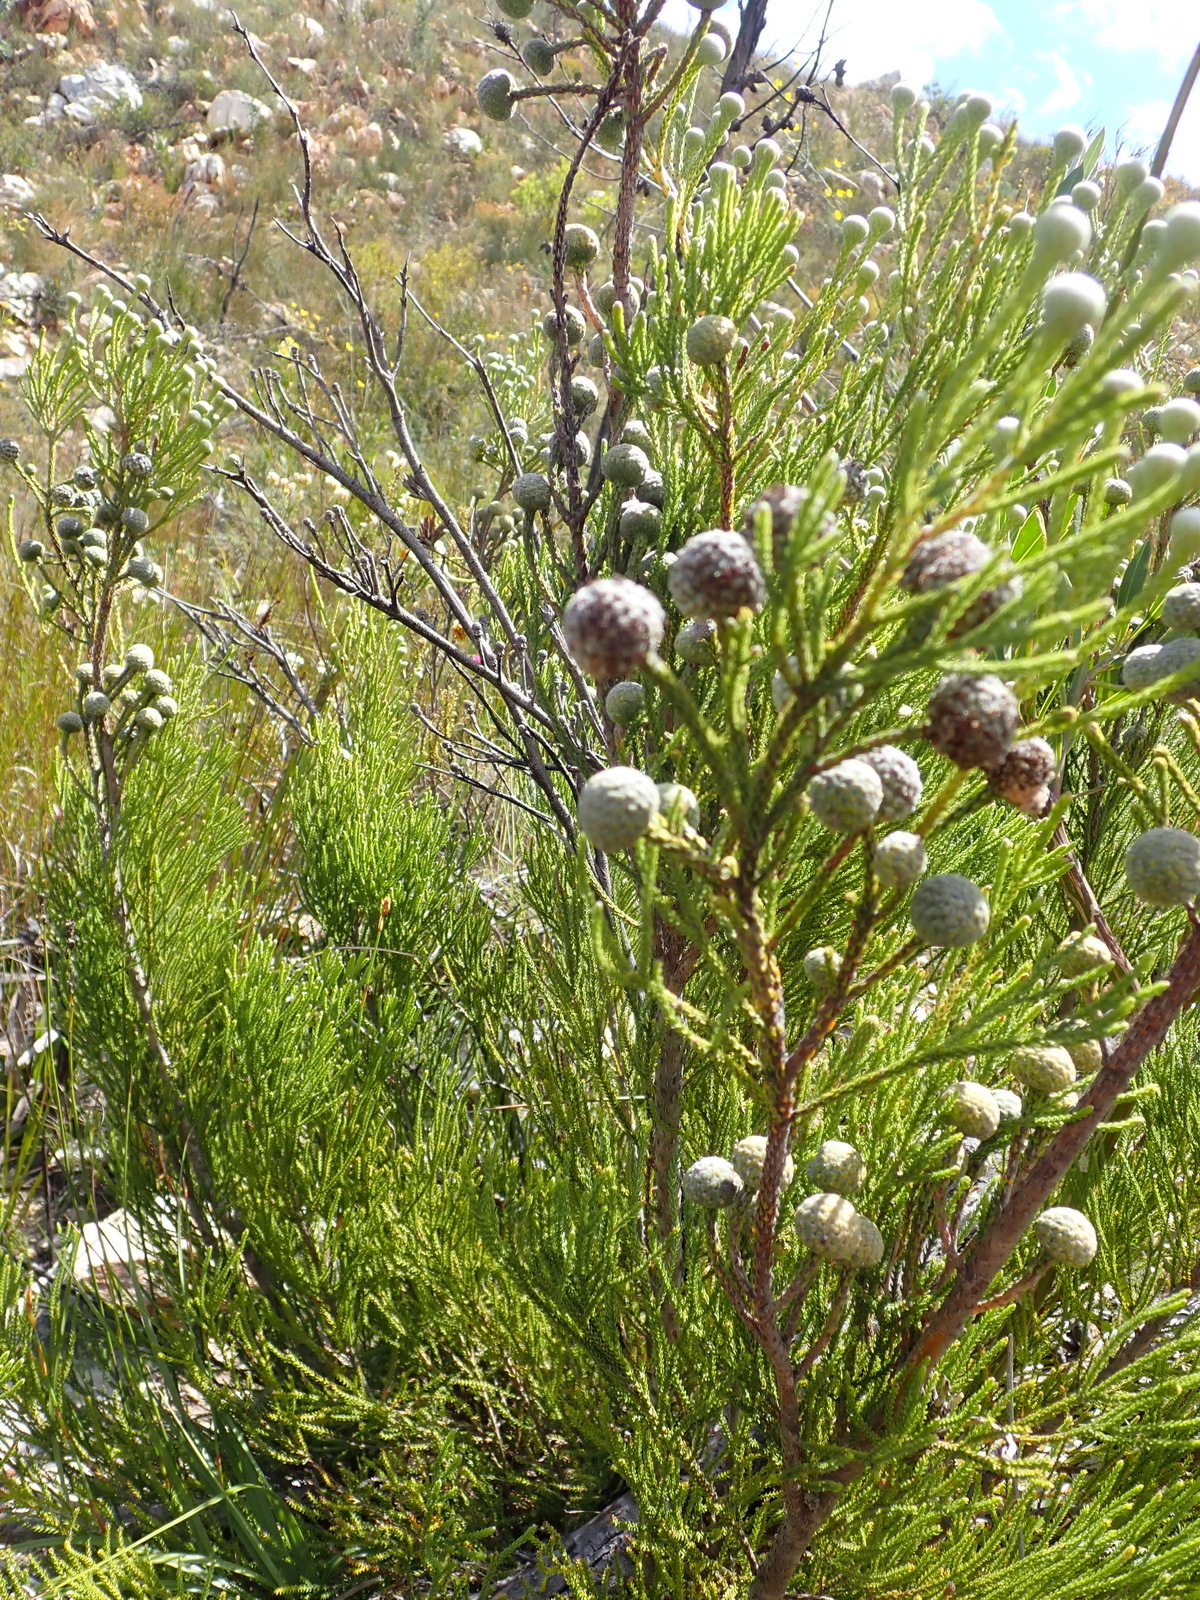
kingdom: Plantae
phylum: Tracheophyta
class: Magnoliopsida
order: Bruniales
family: Bruniaceae
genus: Brunia
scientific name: Brunia noduliflora
